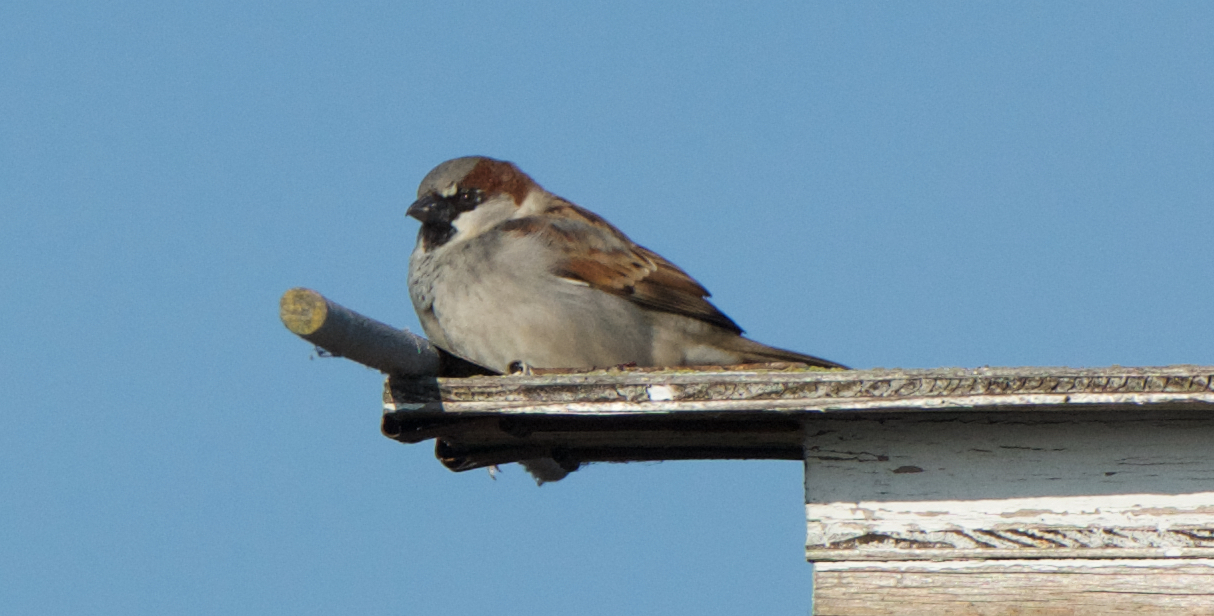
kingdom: Animalia
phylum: Chordata
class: Aves
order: Passeriformes
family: Passeridae
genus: Passer
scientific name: Passer domesticus
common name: House sparrow
